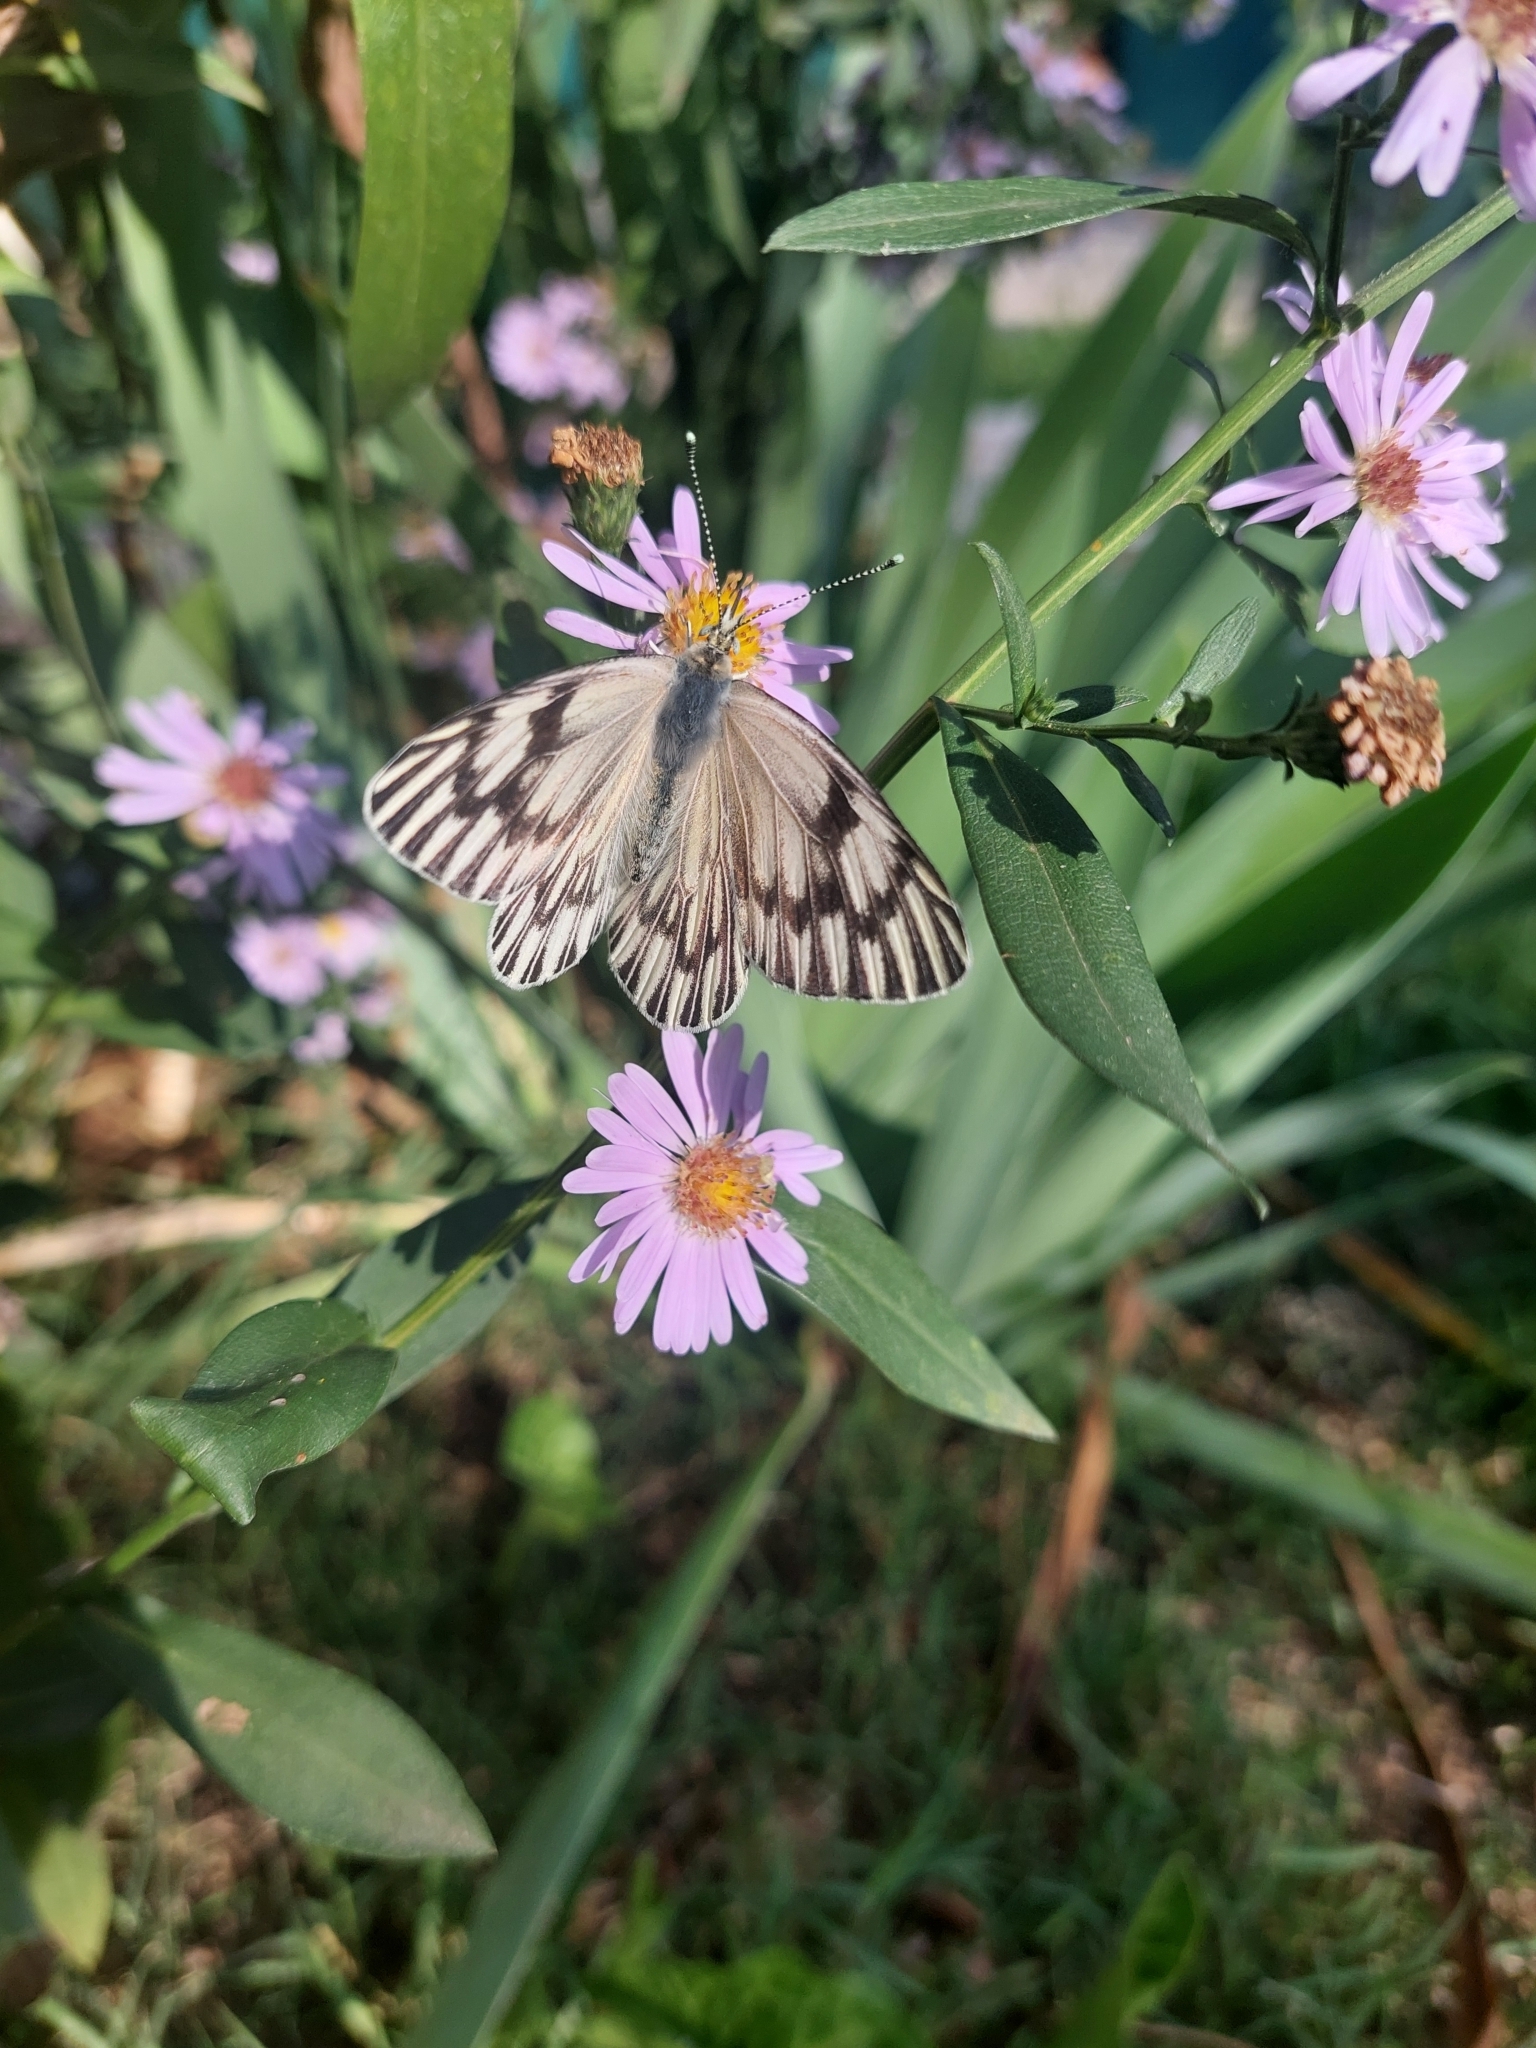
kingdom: Animalia
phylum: Arthropoda
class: Insecta
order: Lepidoptera
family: Pieridae
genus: Tatochila
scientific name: Tatochila mercedis
